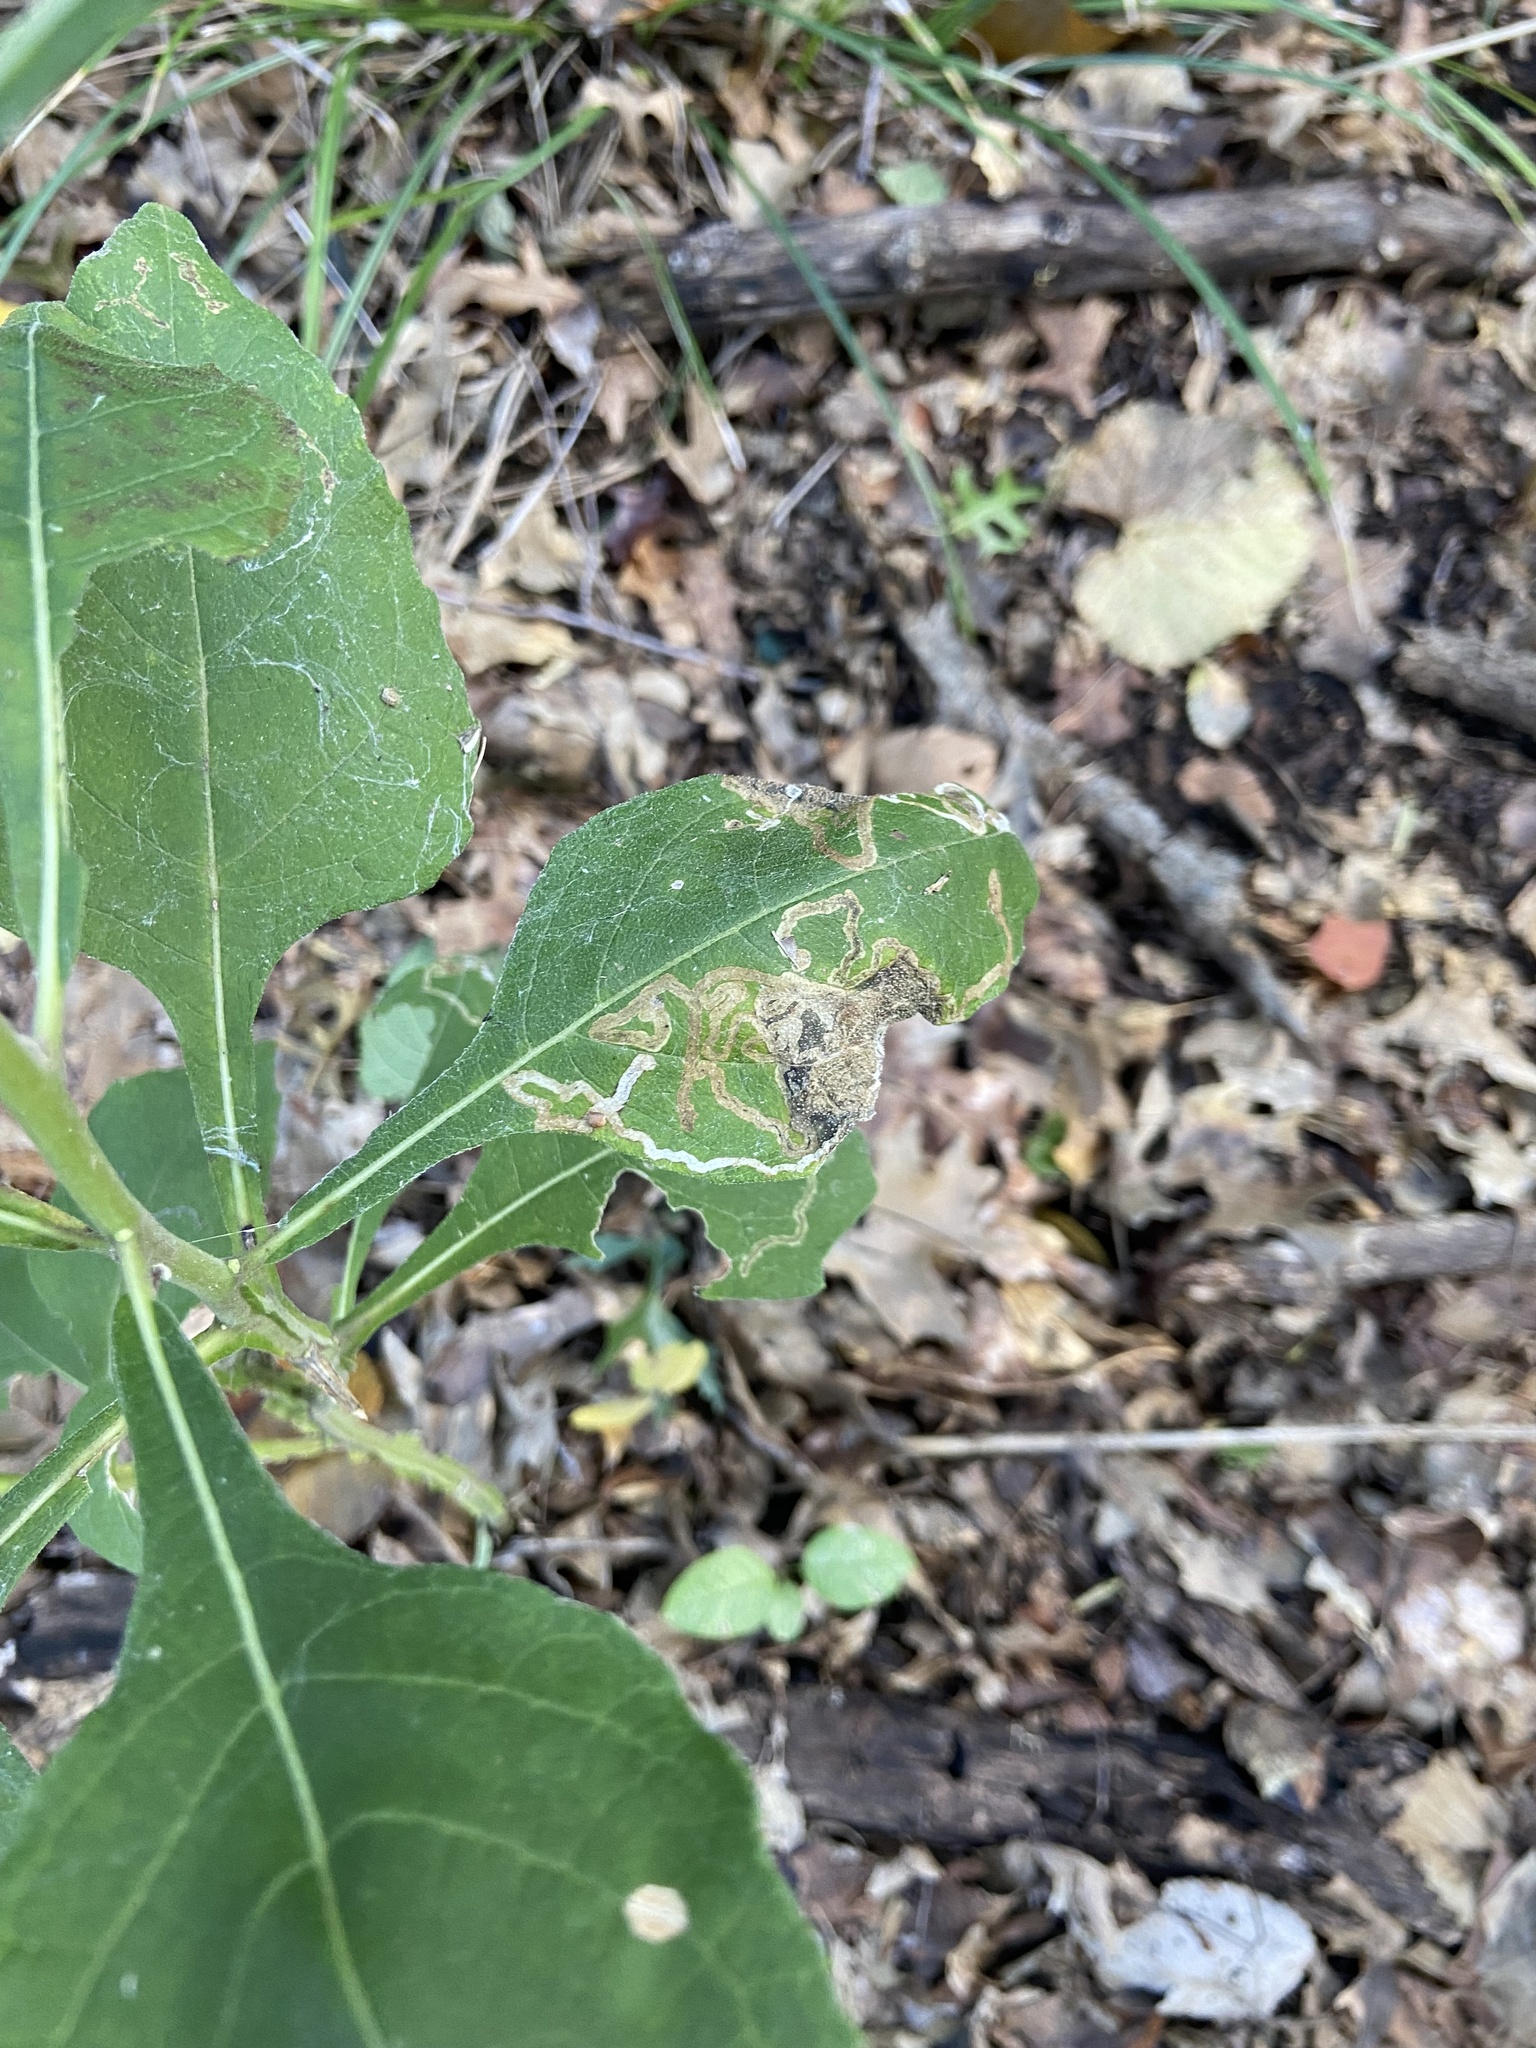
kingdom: Animalia
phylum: Arthropoda
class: Insecta
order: Diptera
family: Agromyzidae
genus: Liriomyza
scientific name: Liriomyza
